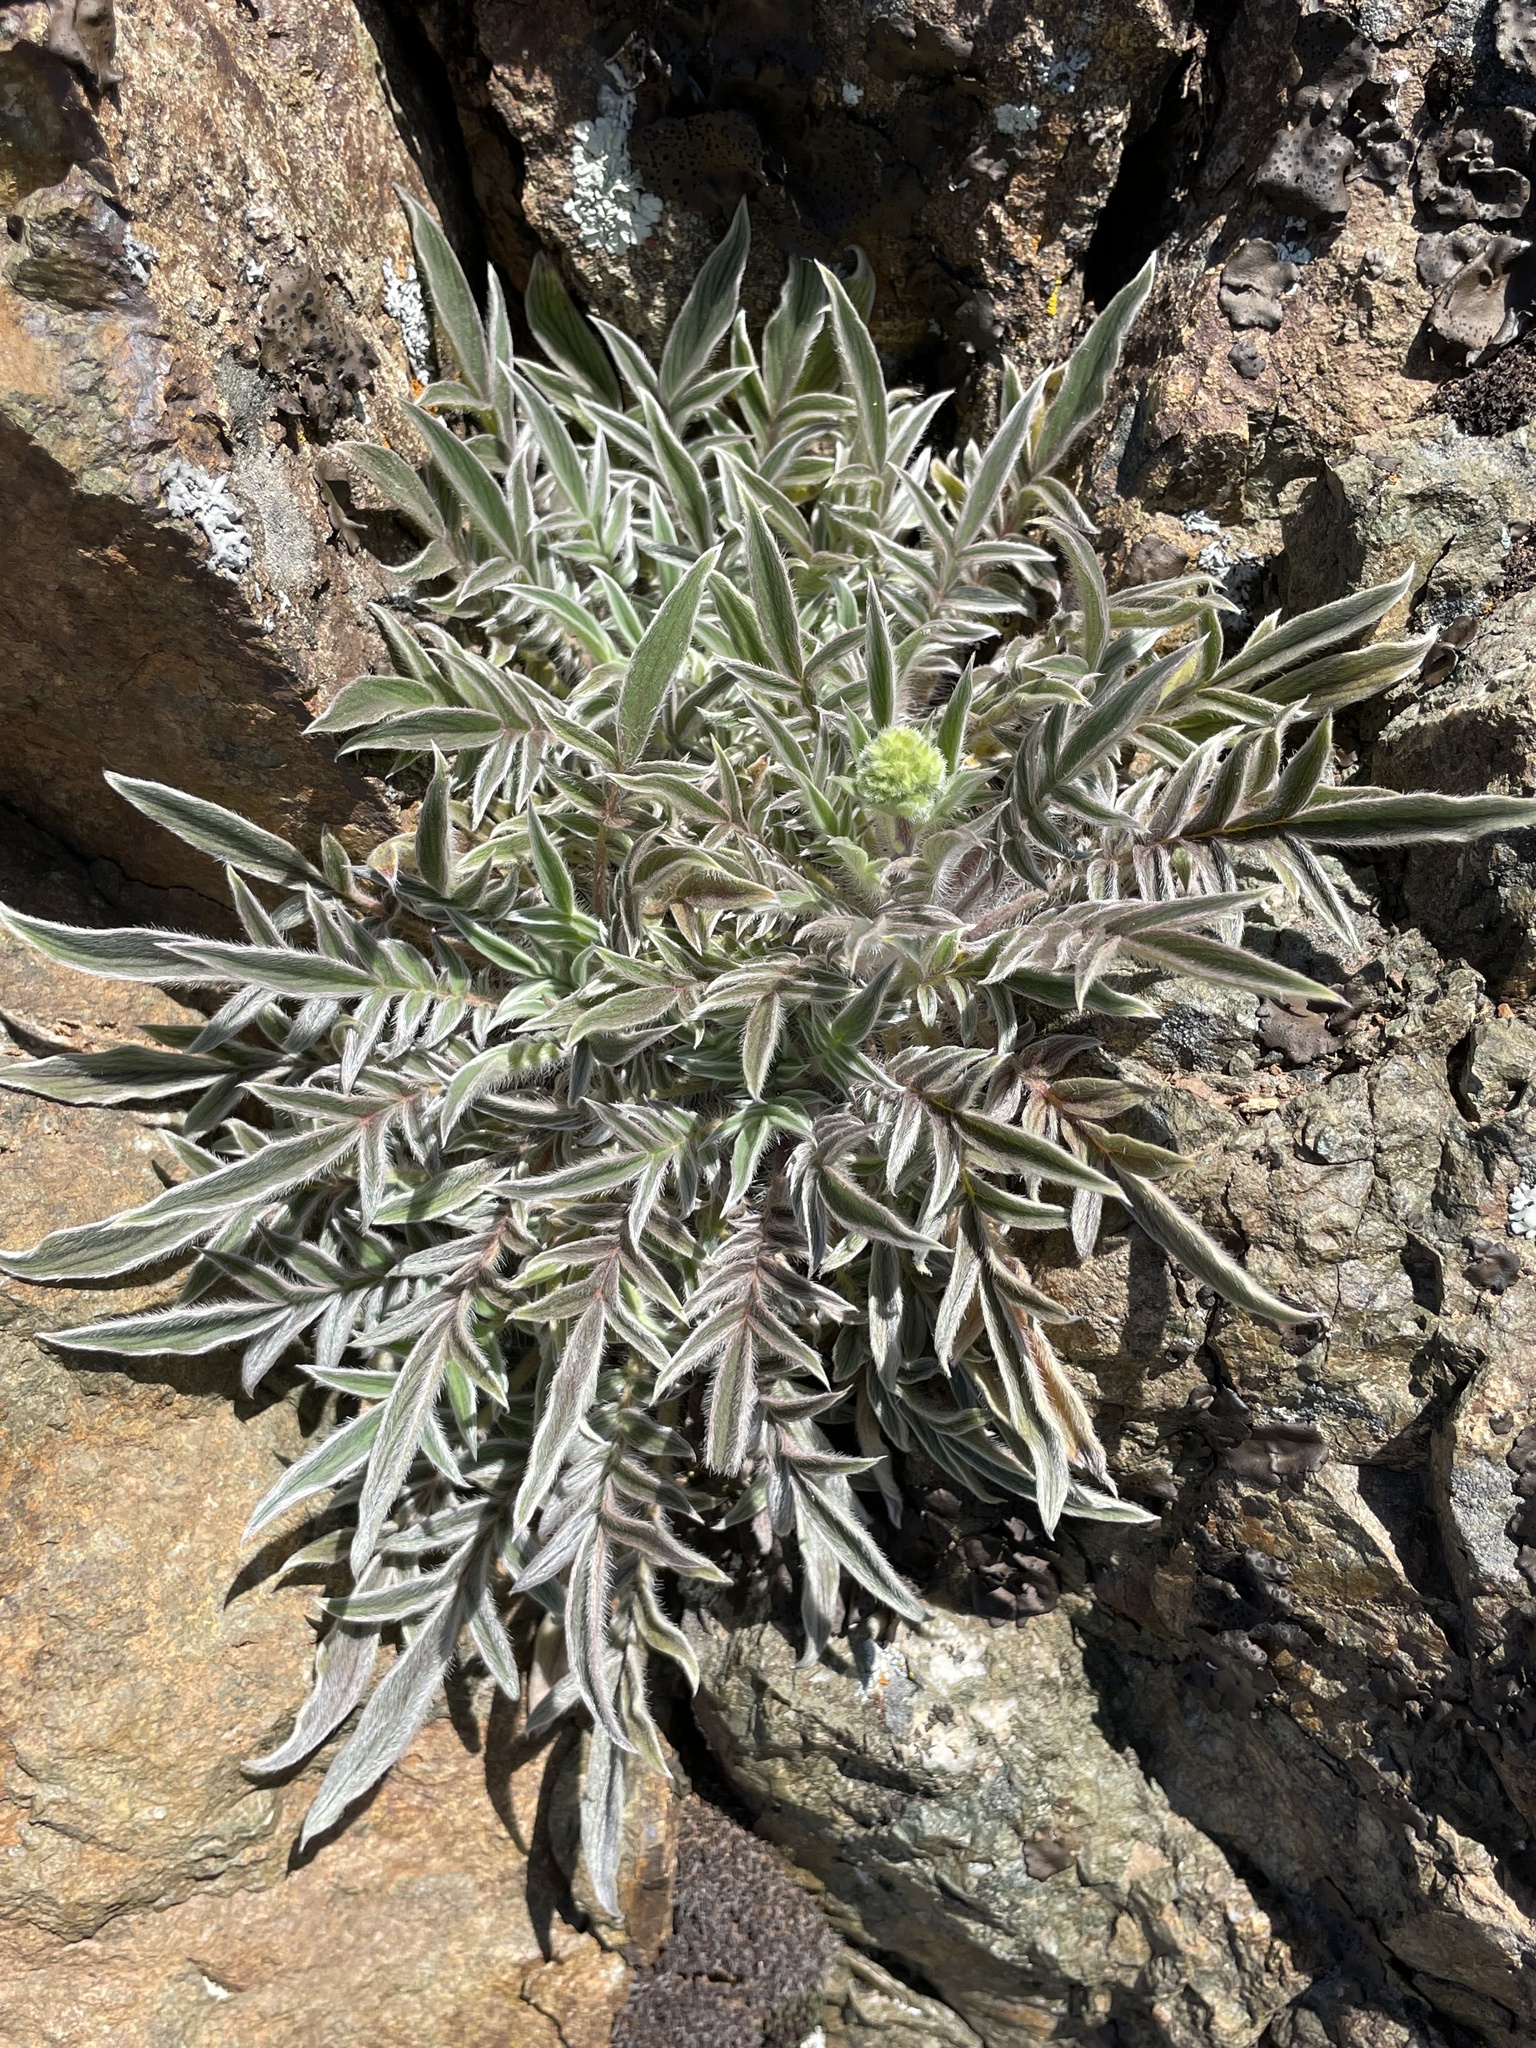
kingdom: Plantae
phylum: Tracheophyta
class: Magnoliopsida
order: Boraginales
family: Hydrophyllaceae
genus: Phacelia
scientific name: Phacelia imbricata
